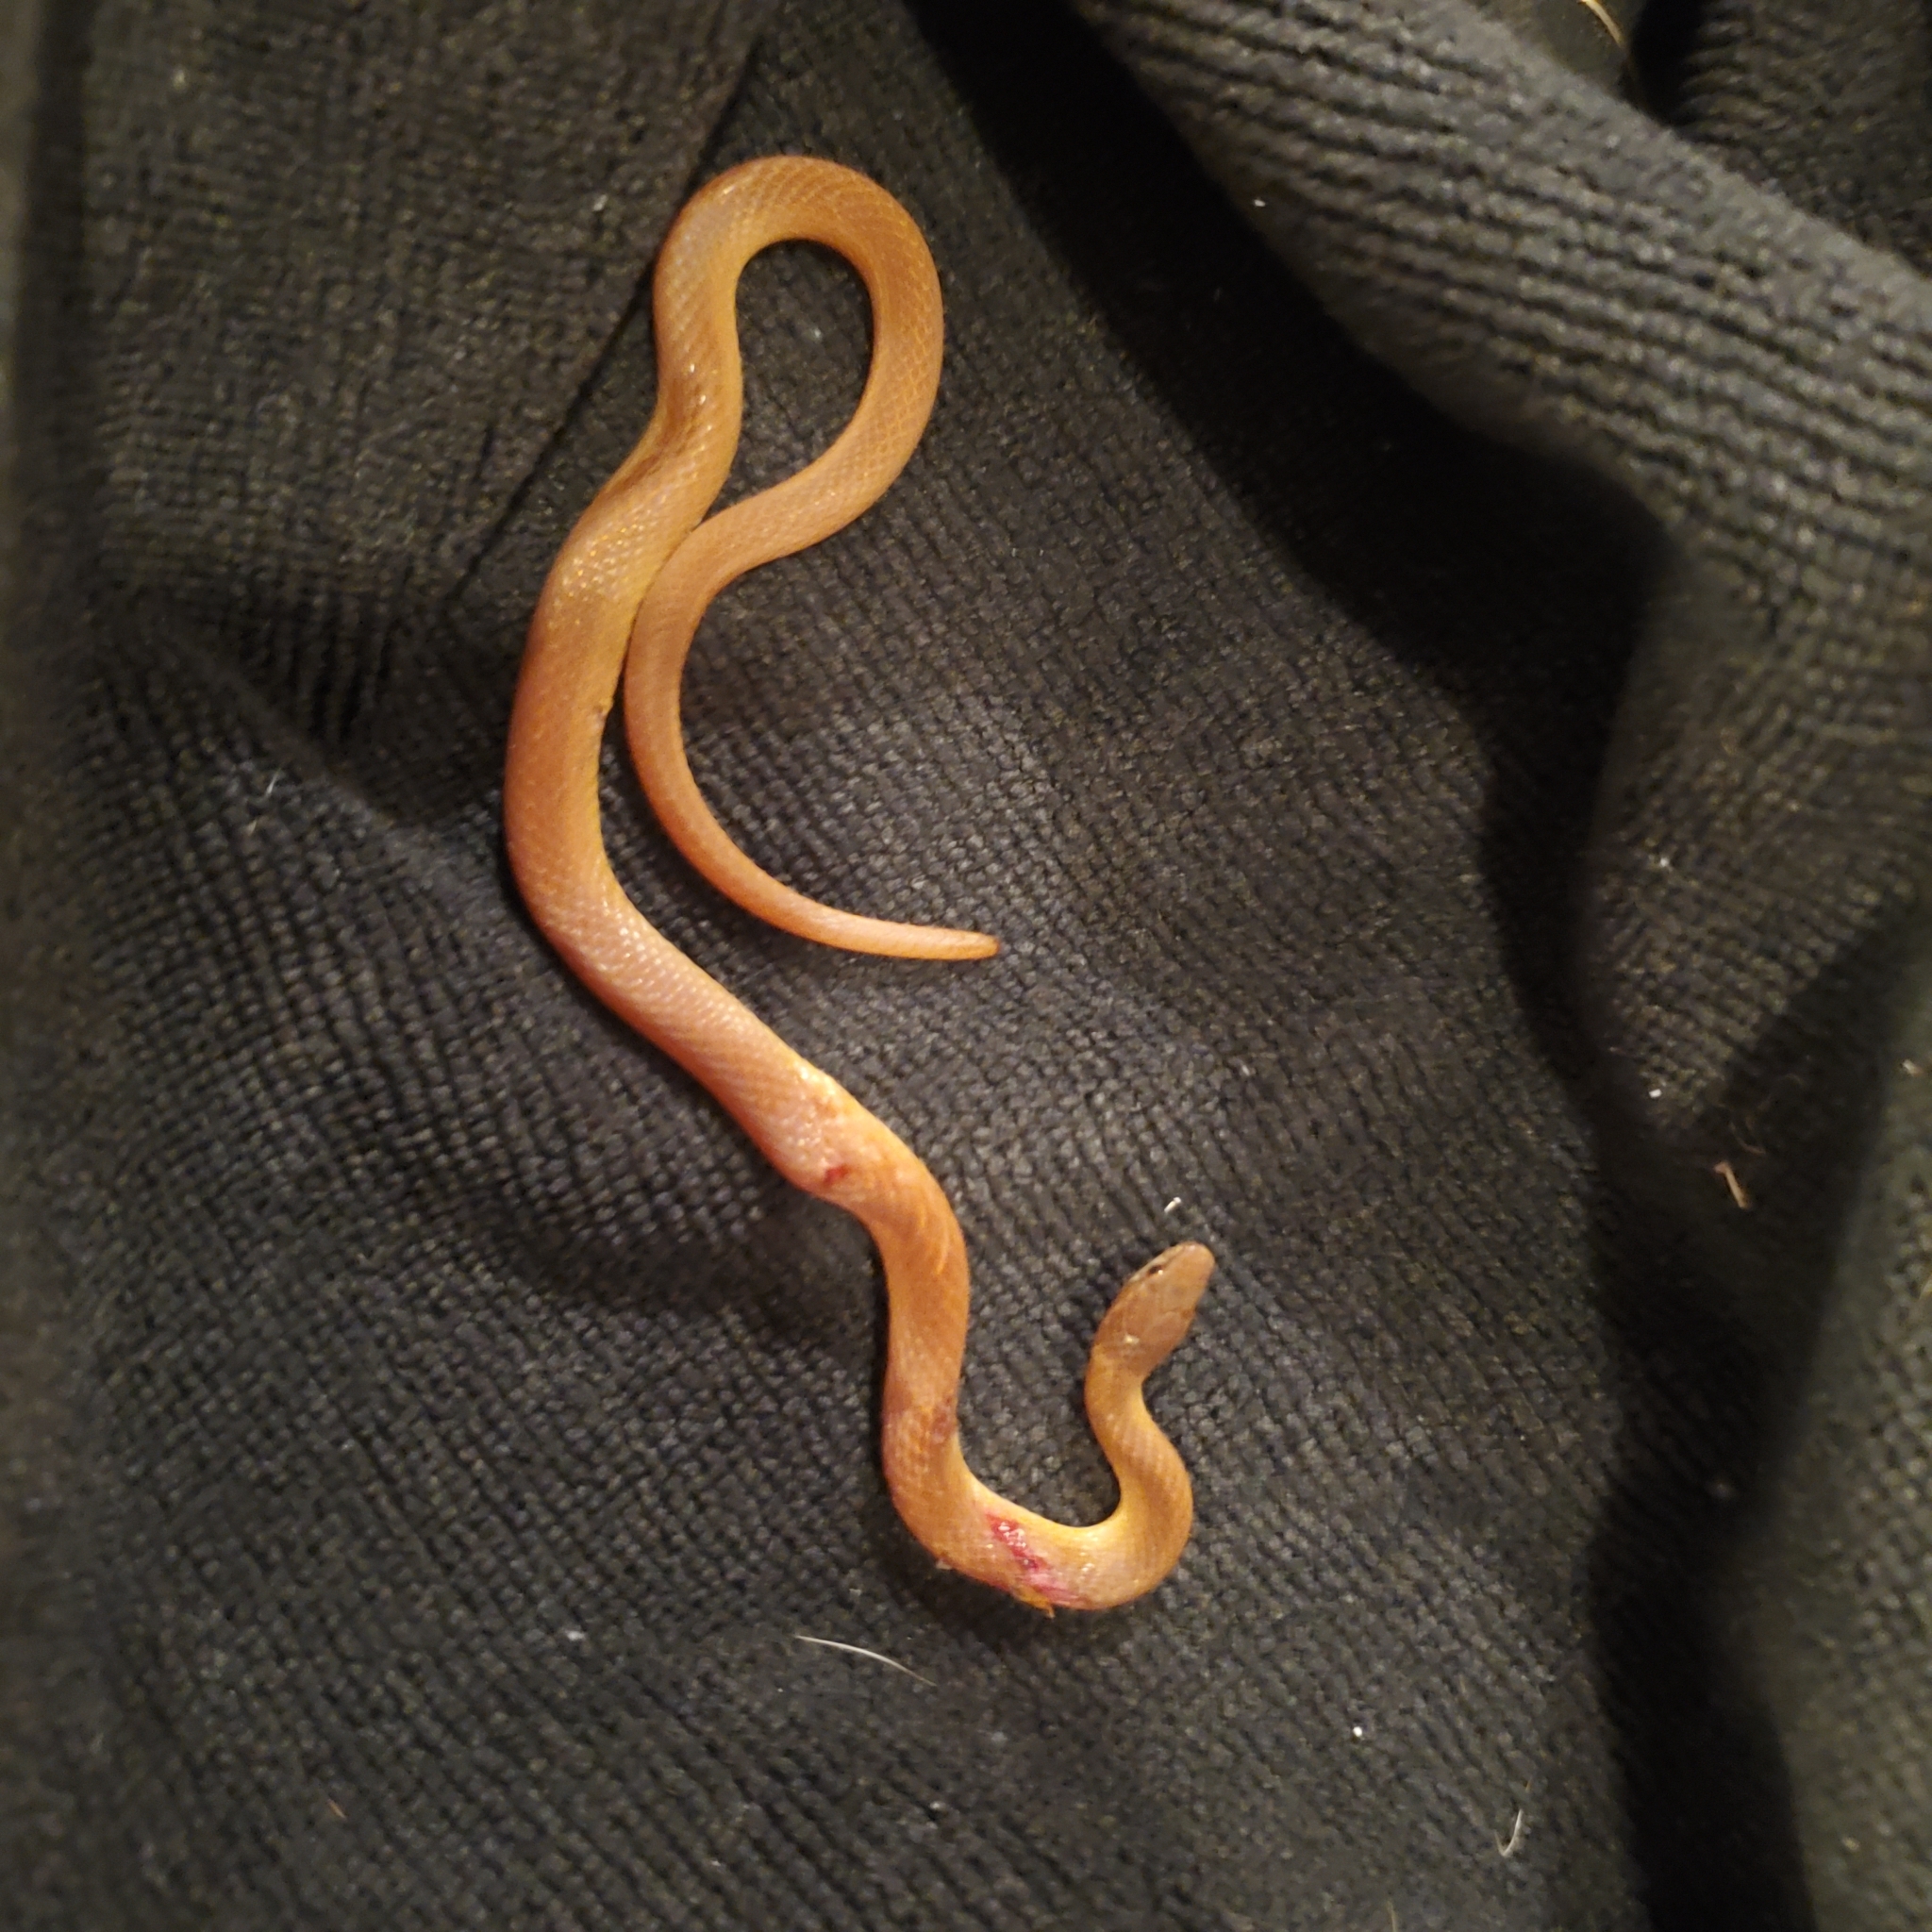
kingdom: Animalia
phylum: Chordata
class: Squamata
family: Colubridae
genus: Rhadinaea
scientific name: Rhadinaea flavilata
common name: Pine woods littersnake
